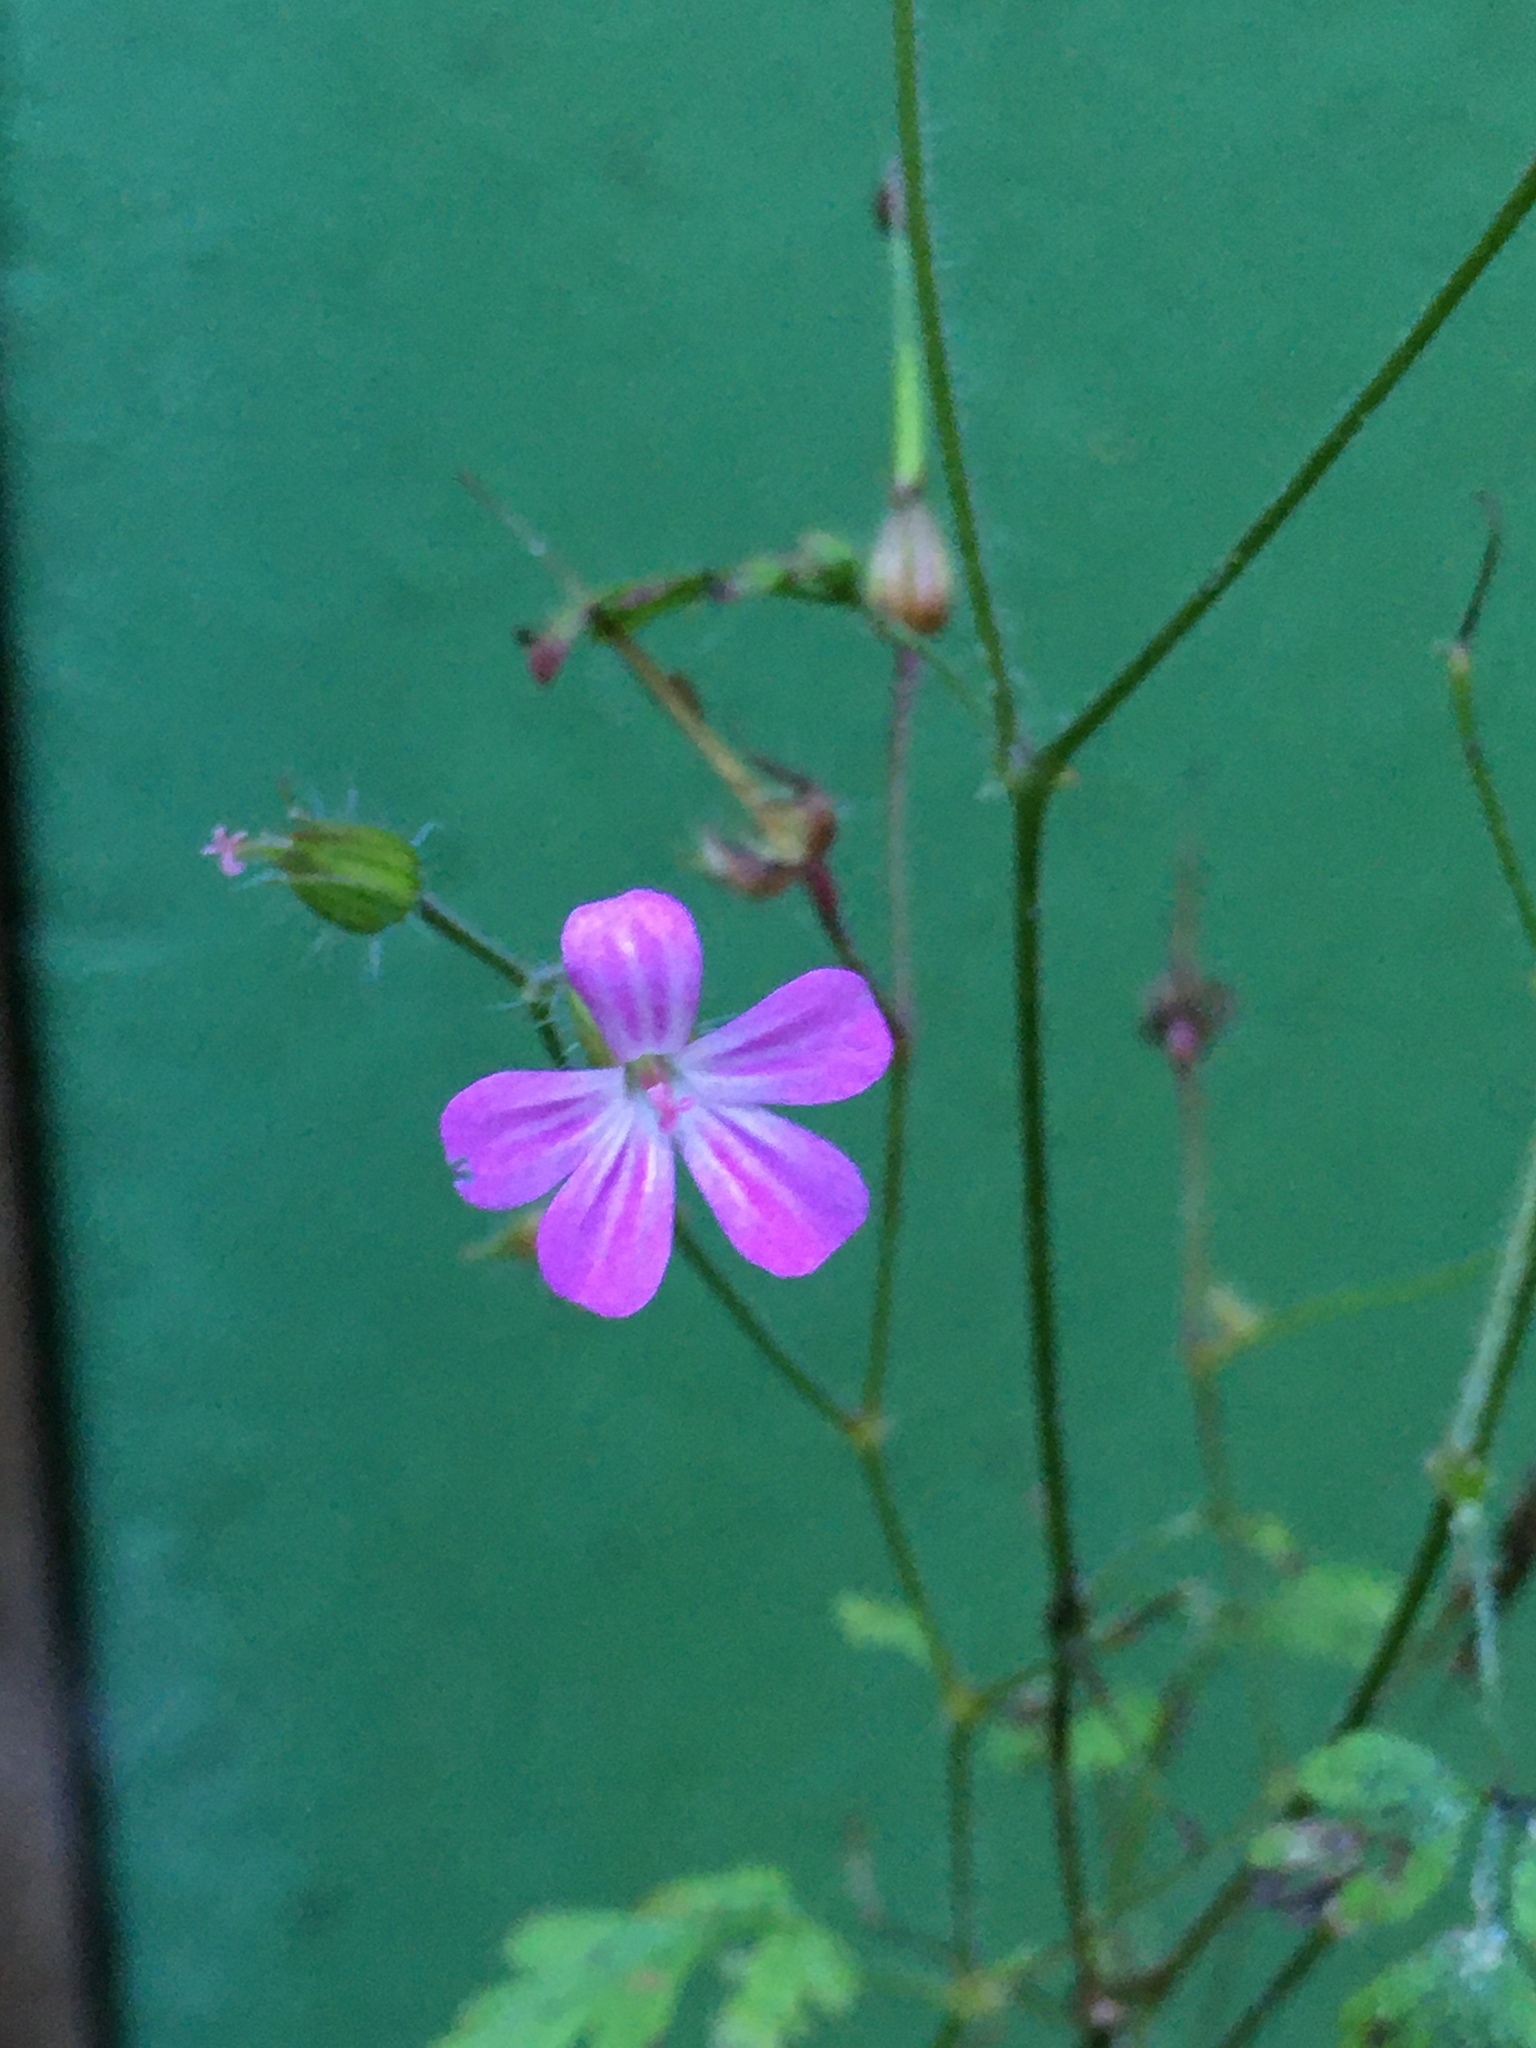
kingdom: Plantae
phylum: Tracheophyta
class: Magnoliopsida
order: Geraniales
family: Geraniaceae
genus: Geranium
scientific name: Geranium robertianum
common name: Herb-robert
